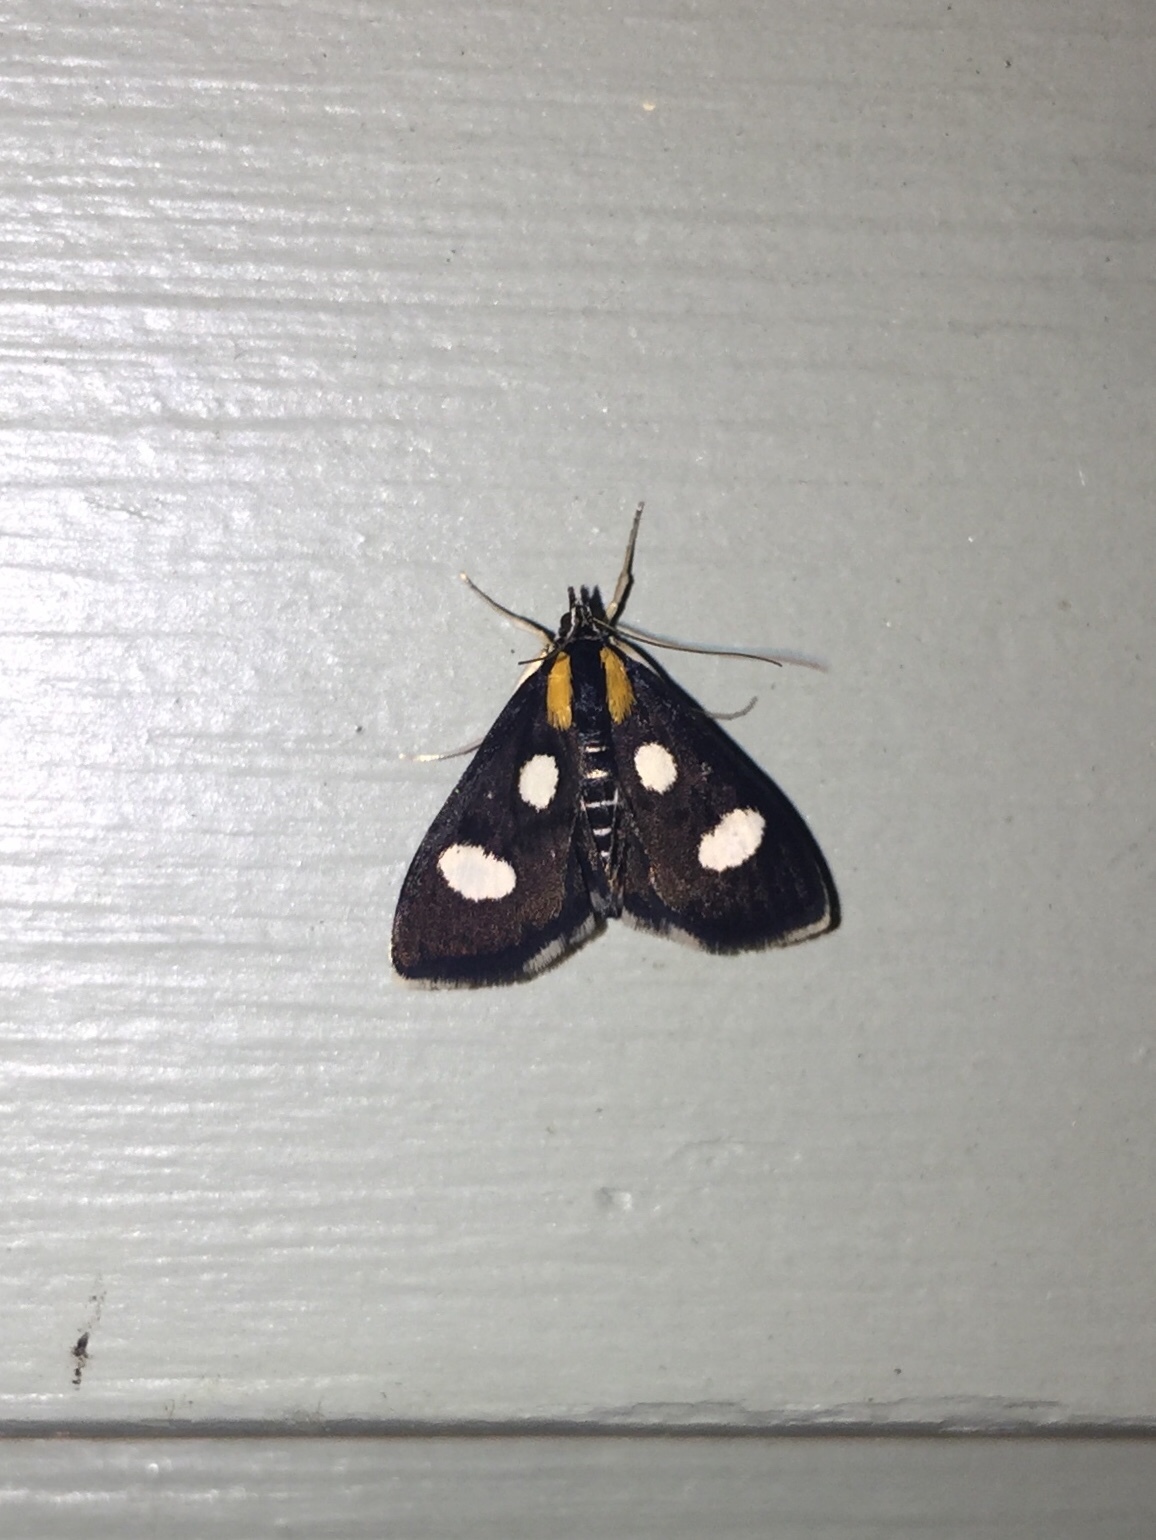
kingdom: Animalia
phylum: Arthropoda
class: Insecta
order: Lepidoptera
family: Crambidae
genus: Anania
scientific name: Anania funebris
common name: White-spotted sable moth
